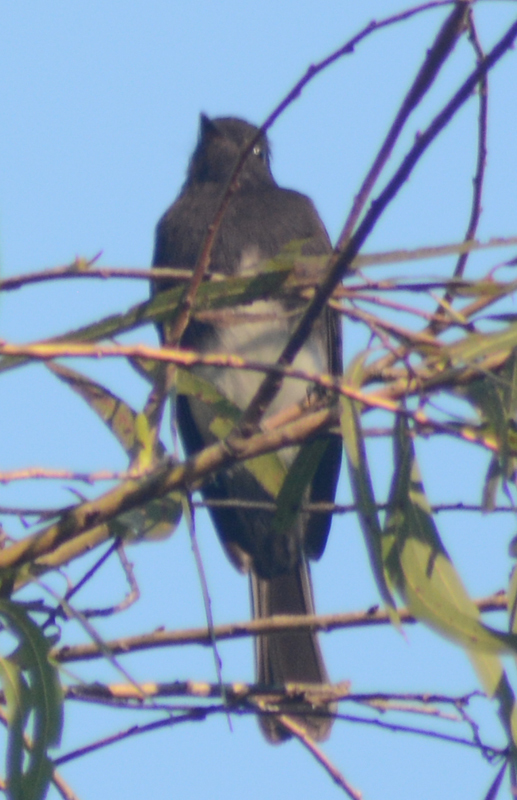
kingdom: Animalia
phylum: Chordata
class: Aves
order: Passeriformes
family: Tyrannidae
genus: Sayornis
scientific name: Sayornis nigricans
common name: Black phoebe
